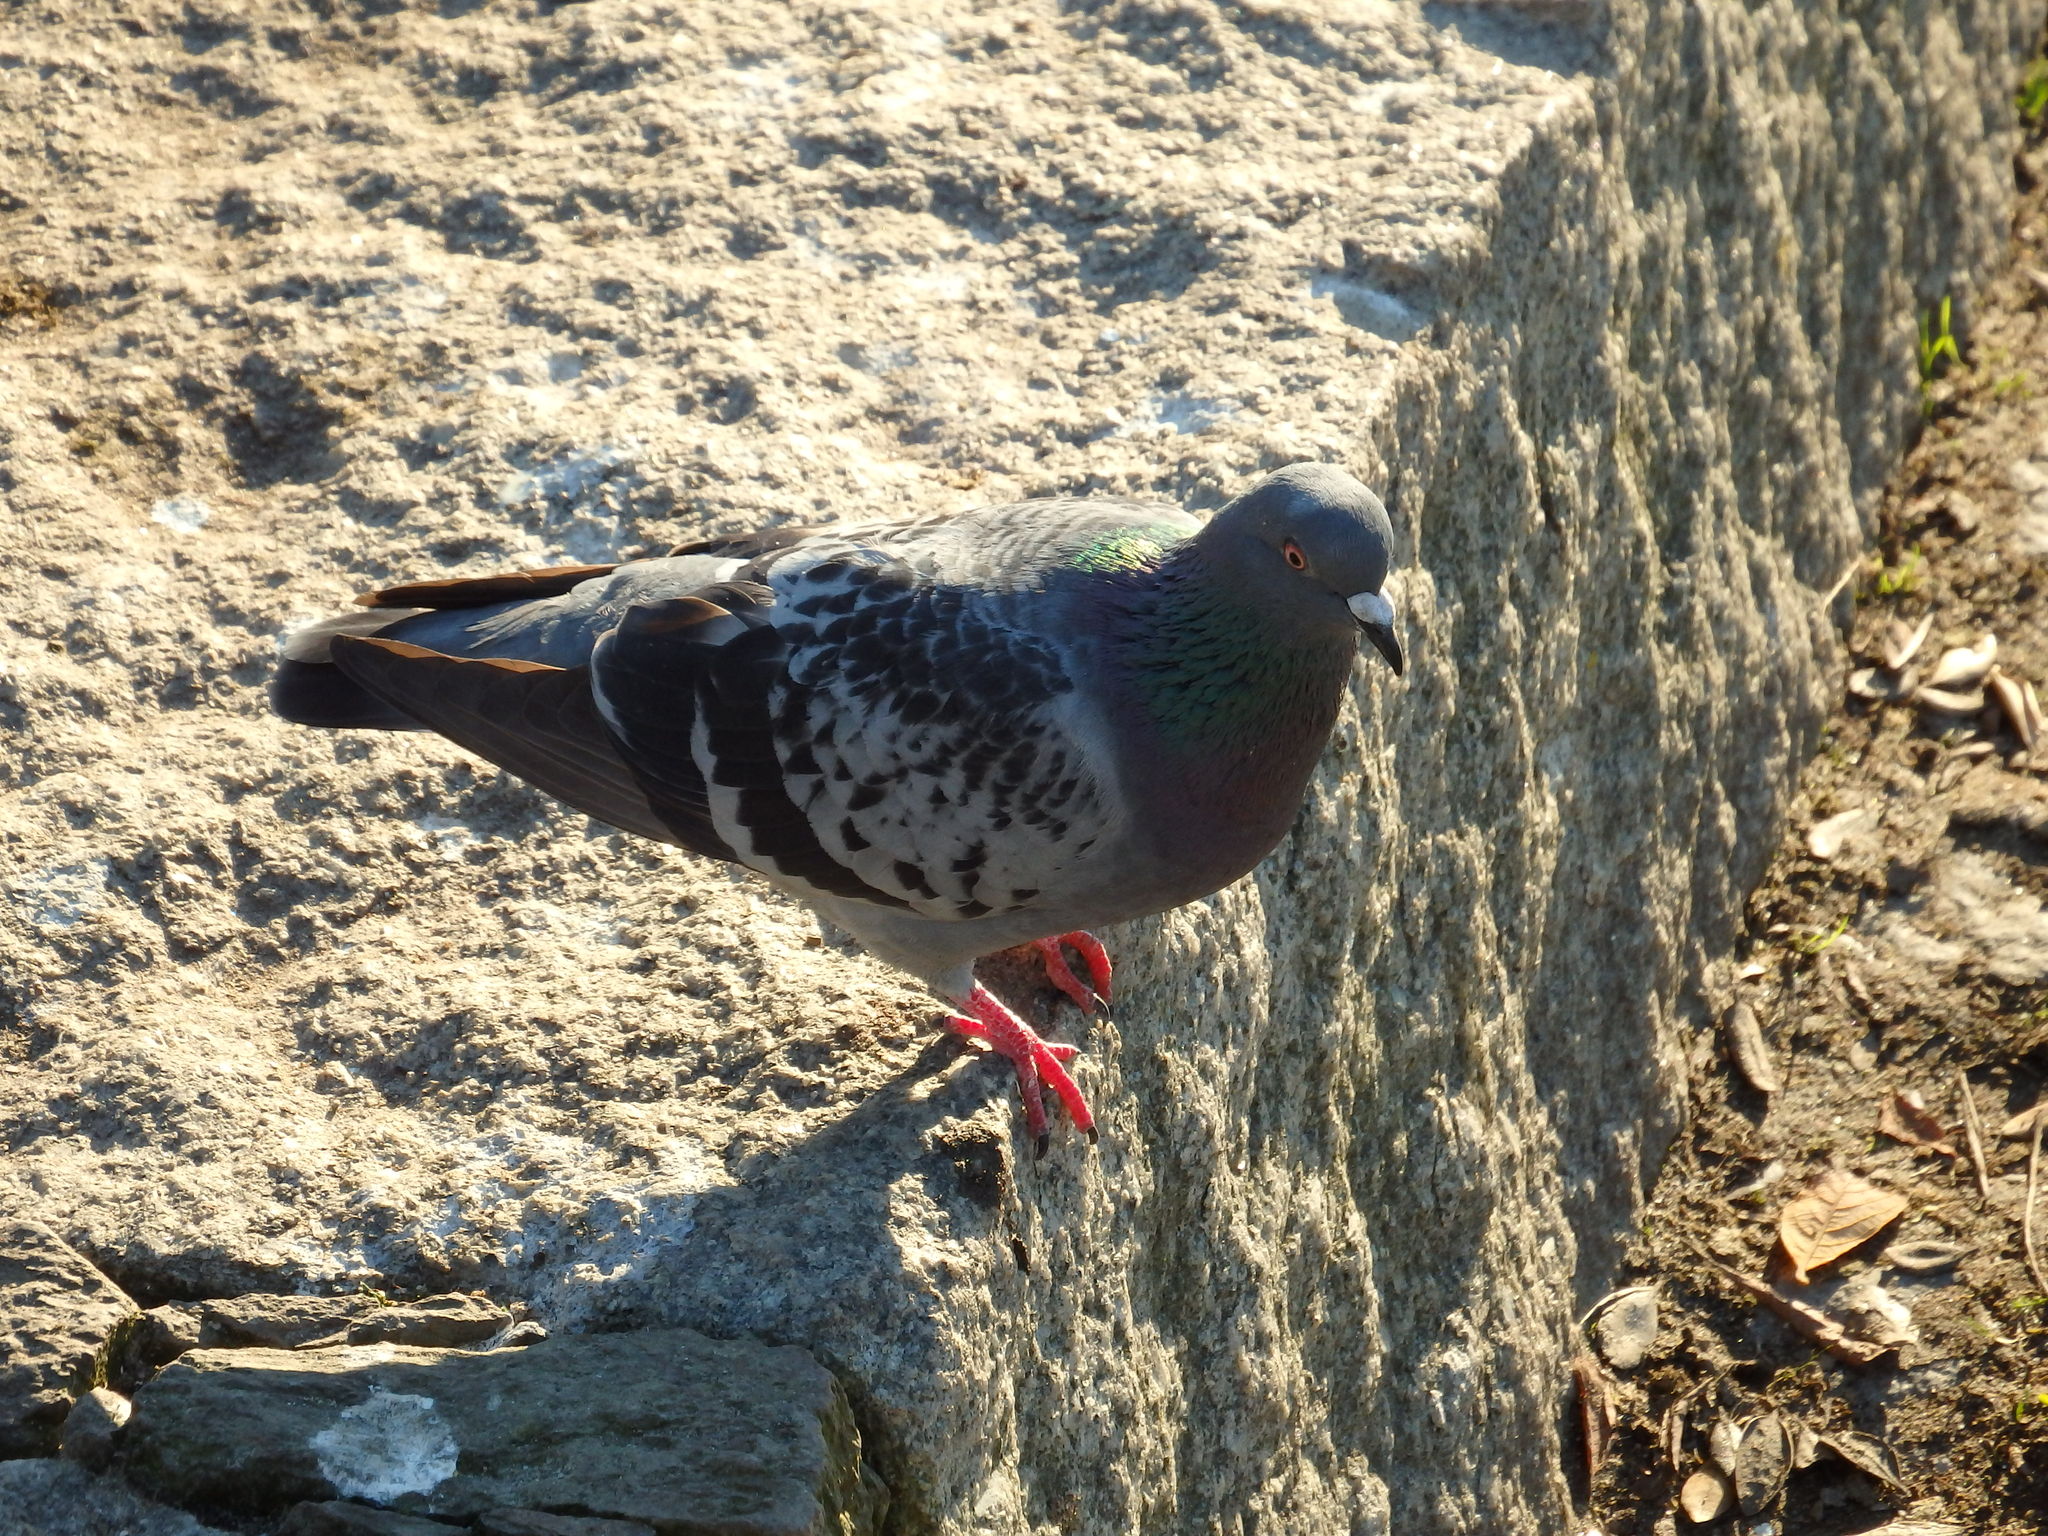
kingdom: Animalia
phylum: Chordata
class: Aves
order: Columbiformes
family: Columbidae
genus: Columba
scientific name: Columba livia
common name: Rock pigeon
